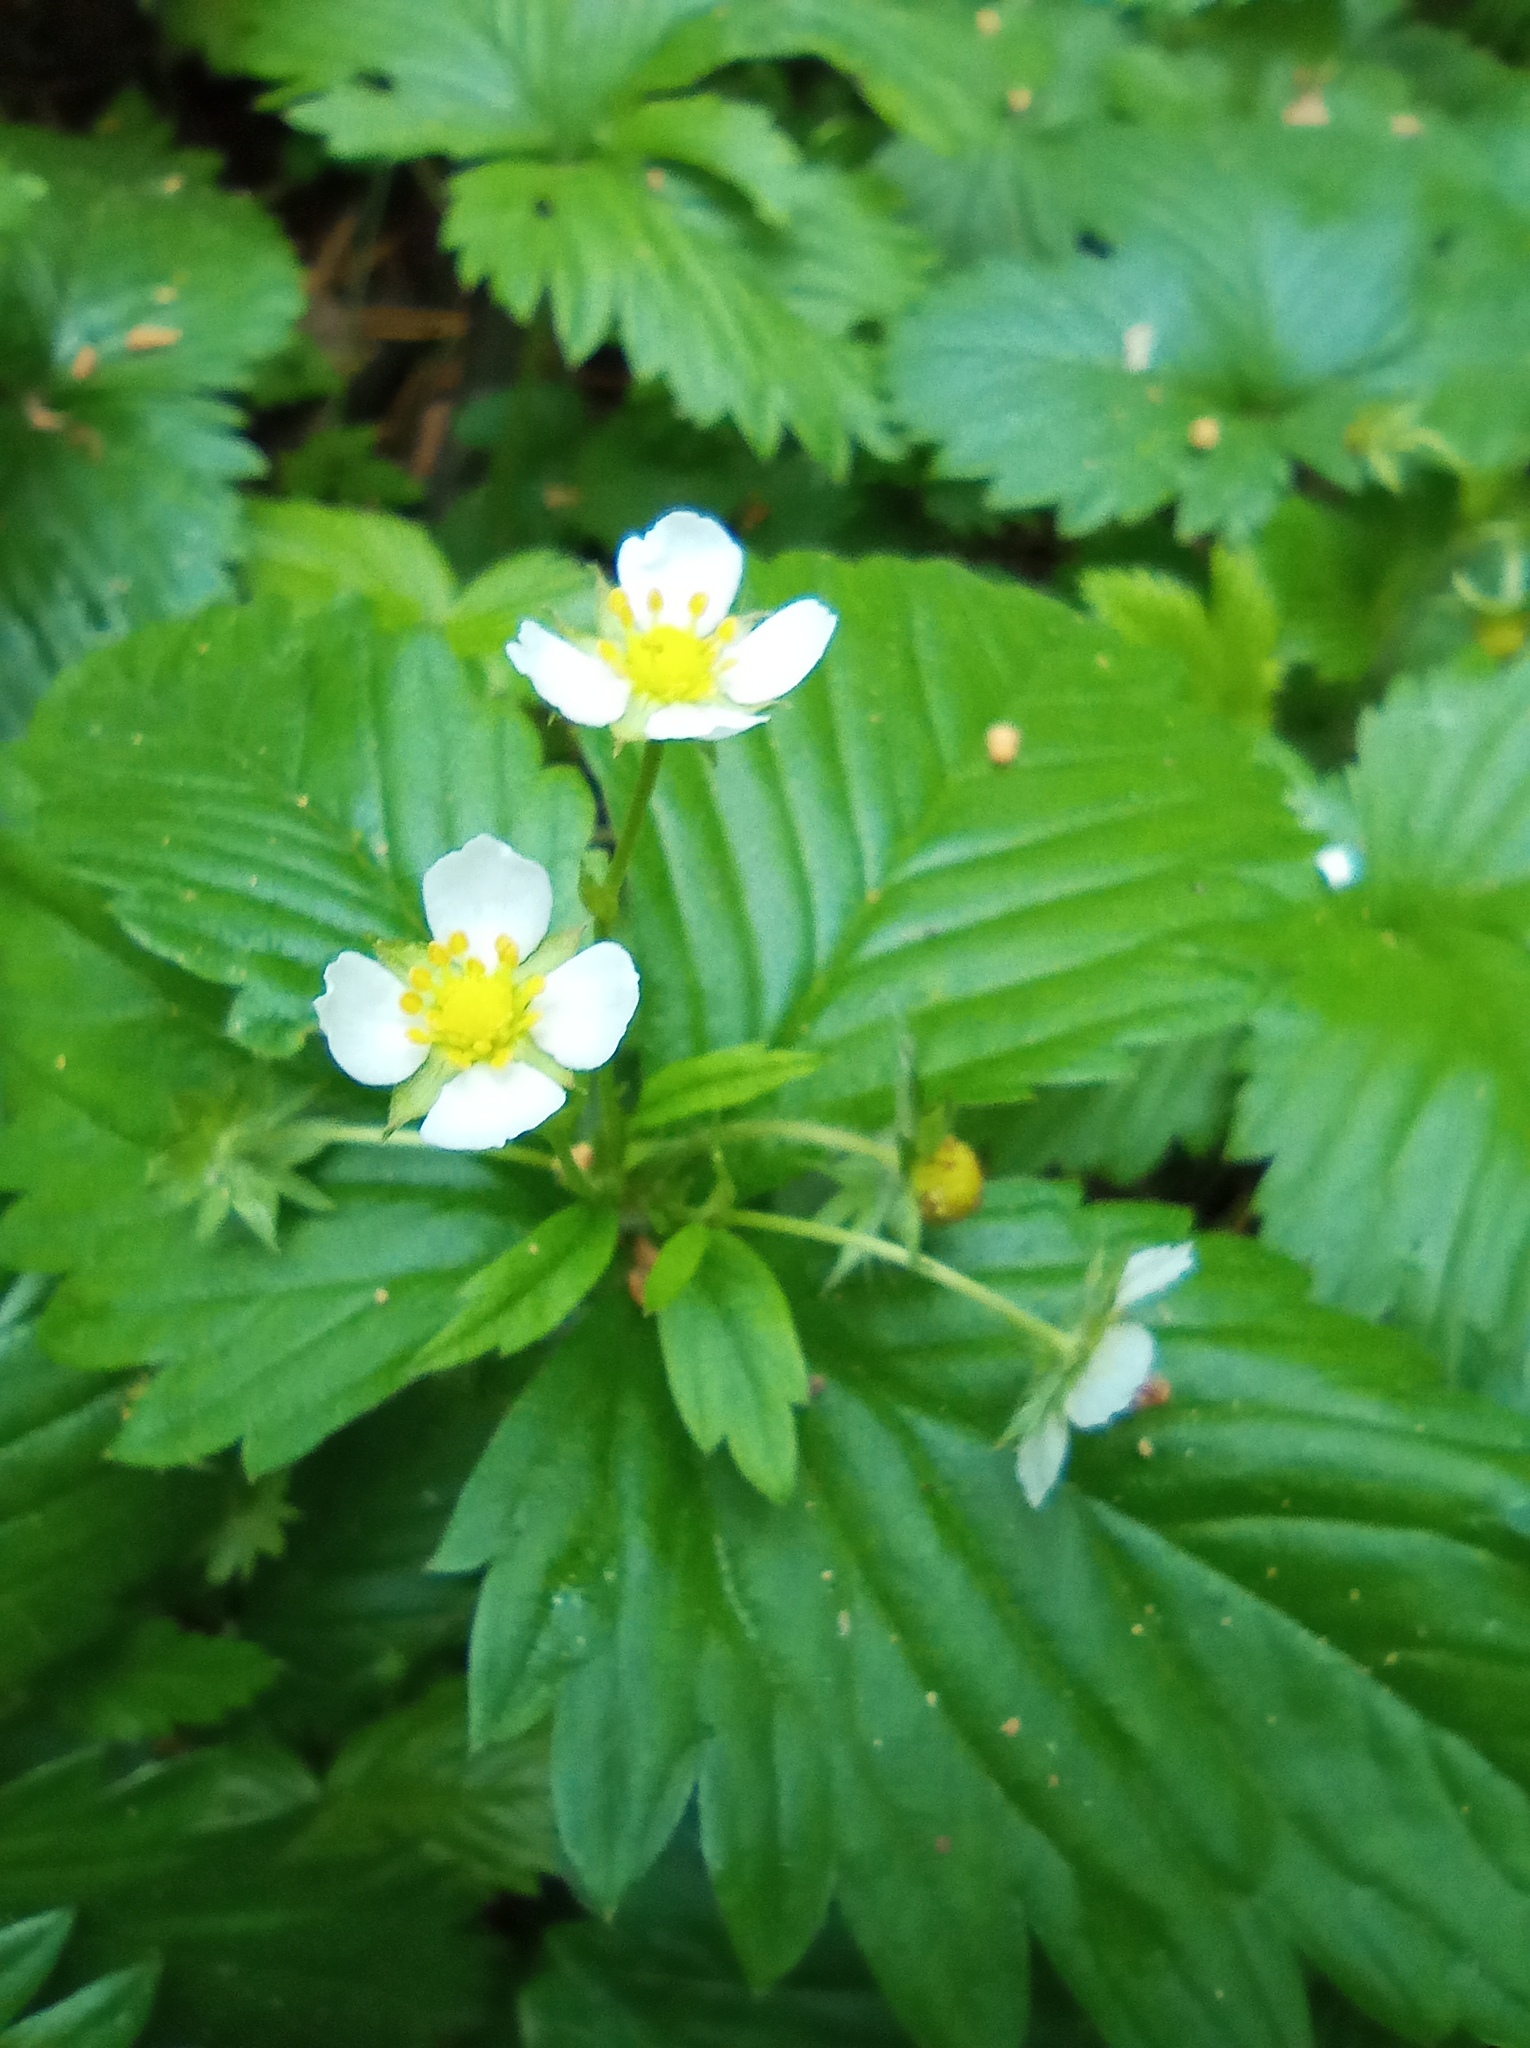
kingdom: Plantae
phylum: Tracheophyta
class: Magnoliopsida
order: Rosales
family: Rosaceae
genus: Fragaria
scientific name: Fragaria vesca
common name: Wild strawberry
